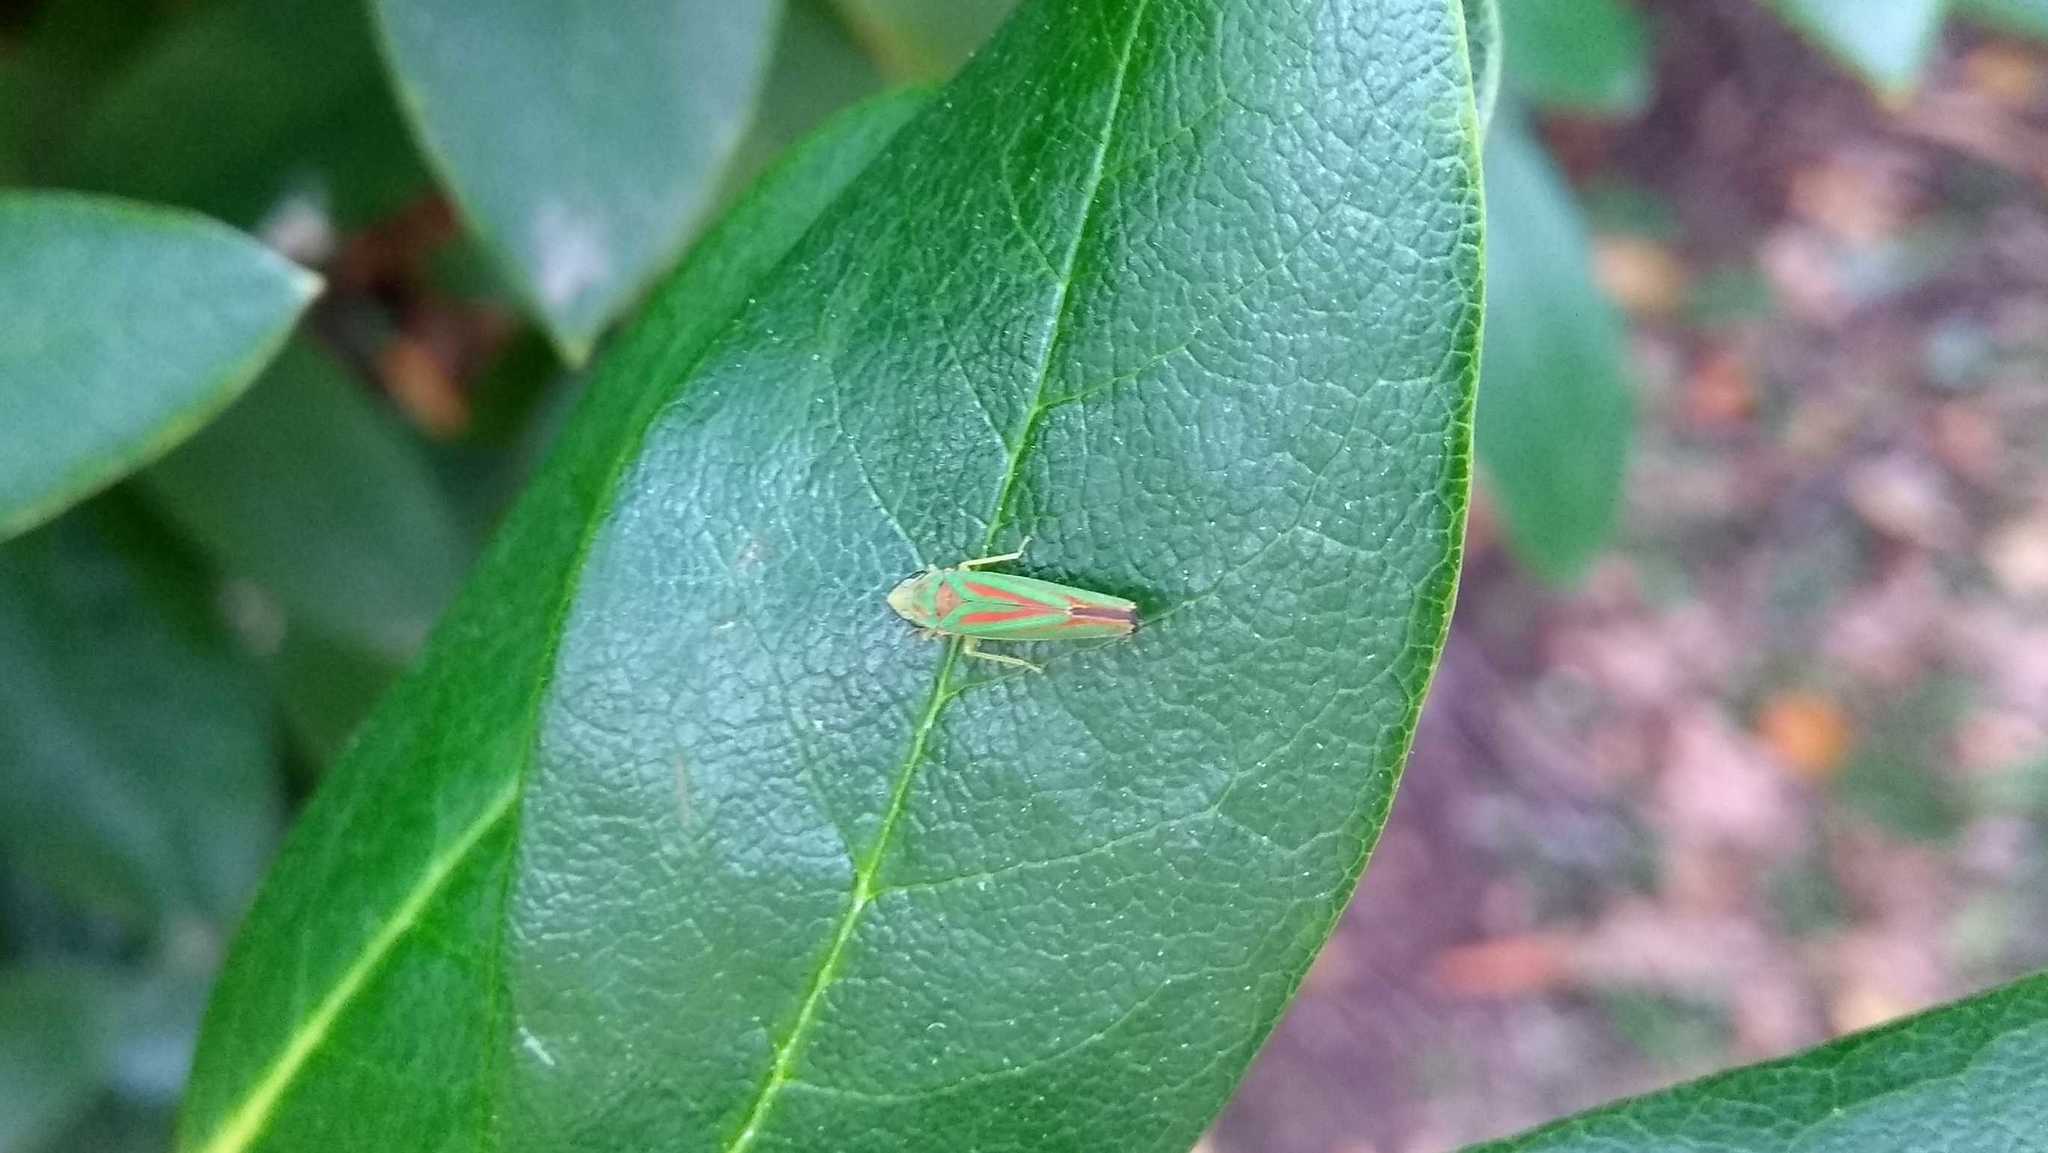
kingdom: Animalia
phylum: Arthropoda
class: Insecta
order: Hemiptera
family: Cicadellidae
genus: Graphocephala
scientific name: Graphocephala fennahi
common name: Rhododendron leafhopper
